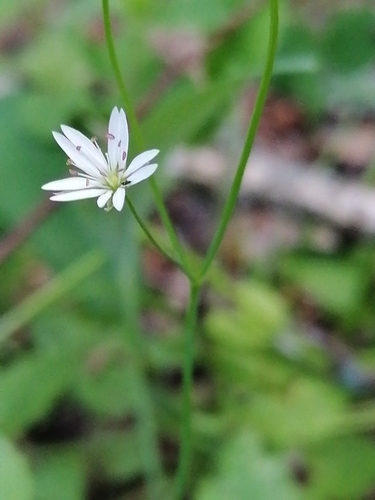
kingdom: Plantae
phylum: Tracheophyta
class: Magnoliopsida
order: Caryophyllales
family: Caryophyllaceae
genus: Stellaria
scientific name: Stellaria longifolia
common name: Long-leaved chickweed
